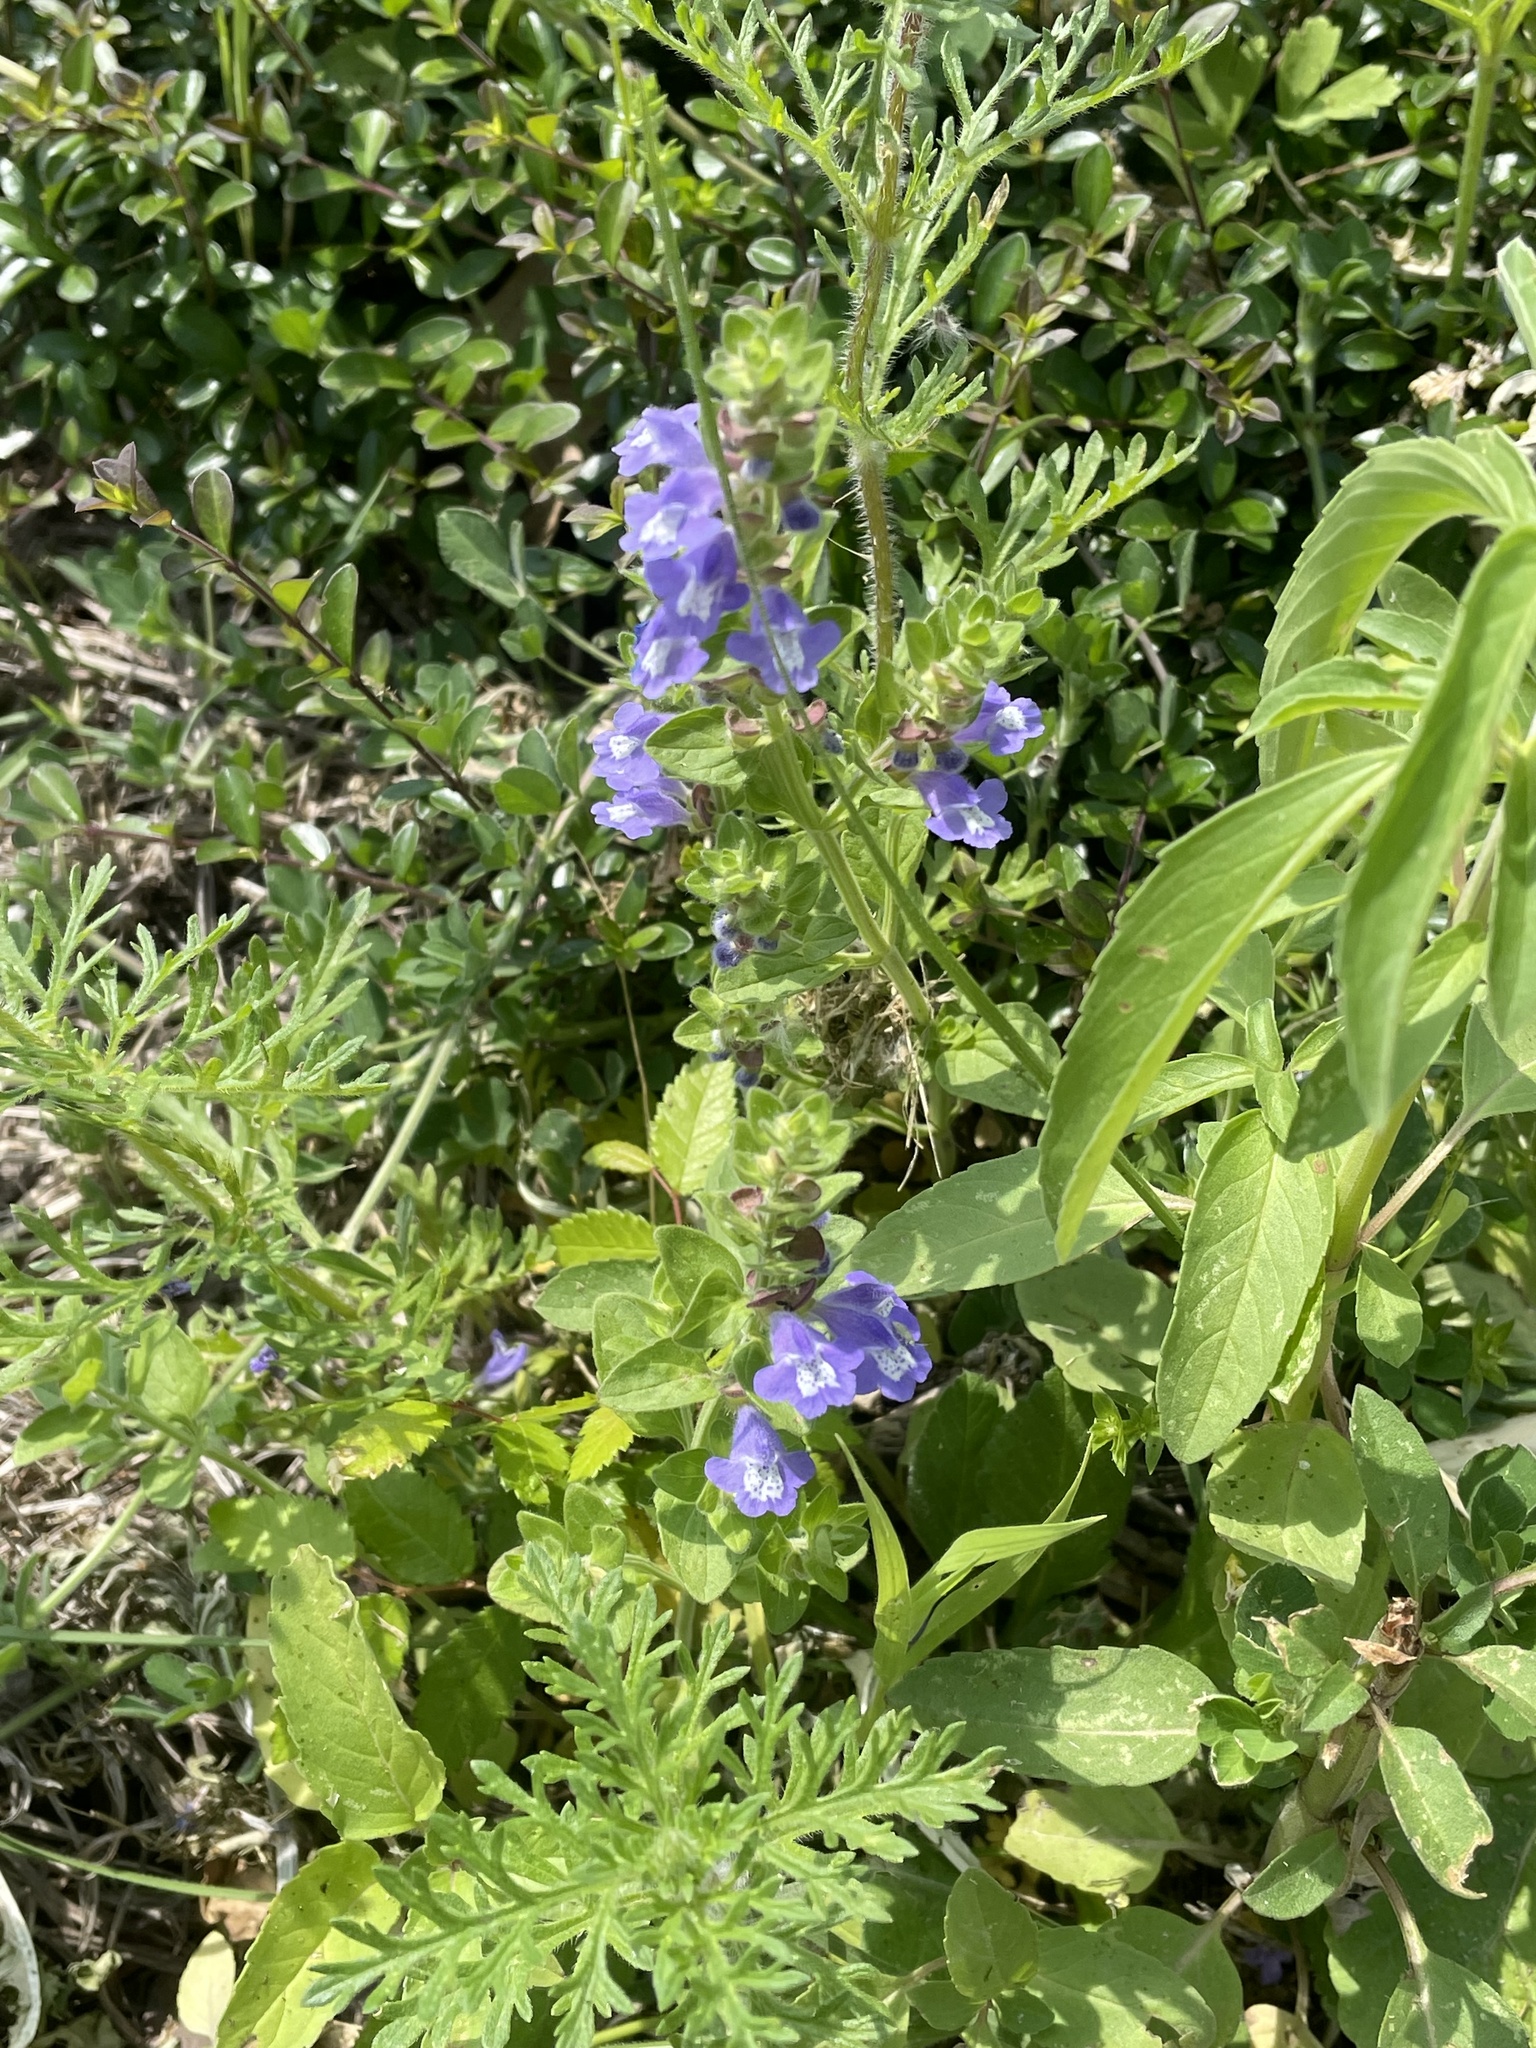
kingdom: Plantae
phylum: Tracheophyta
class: Magnoliopsida
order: Lamiales
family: Lamiaceae
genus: Scutellaria
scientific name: Scutellaria drummondii
